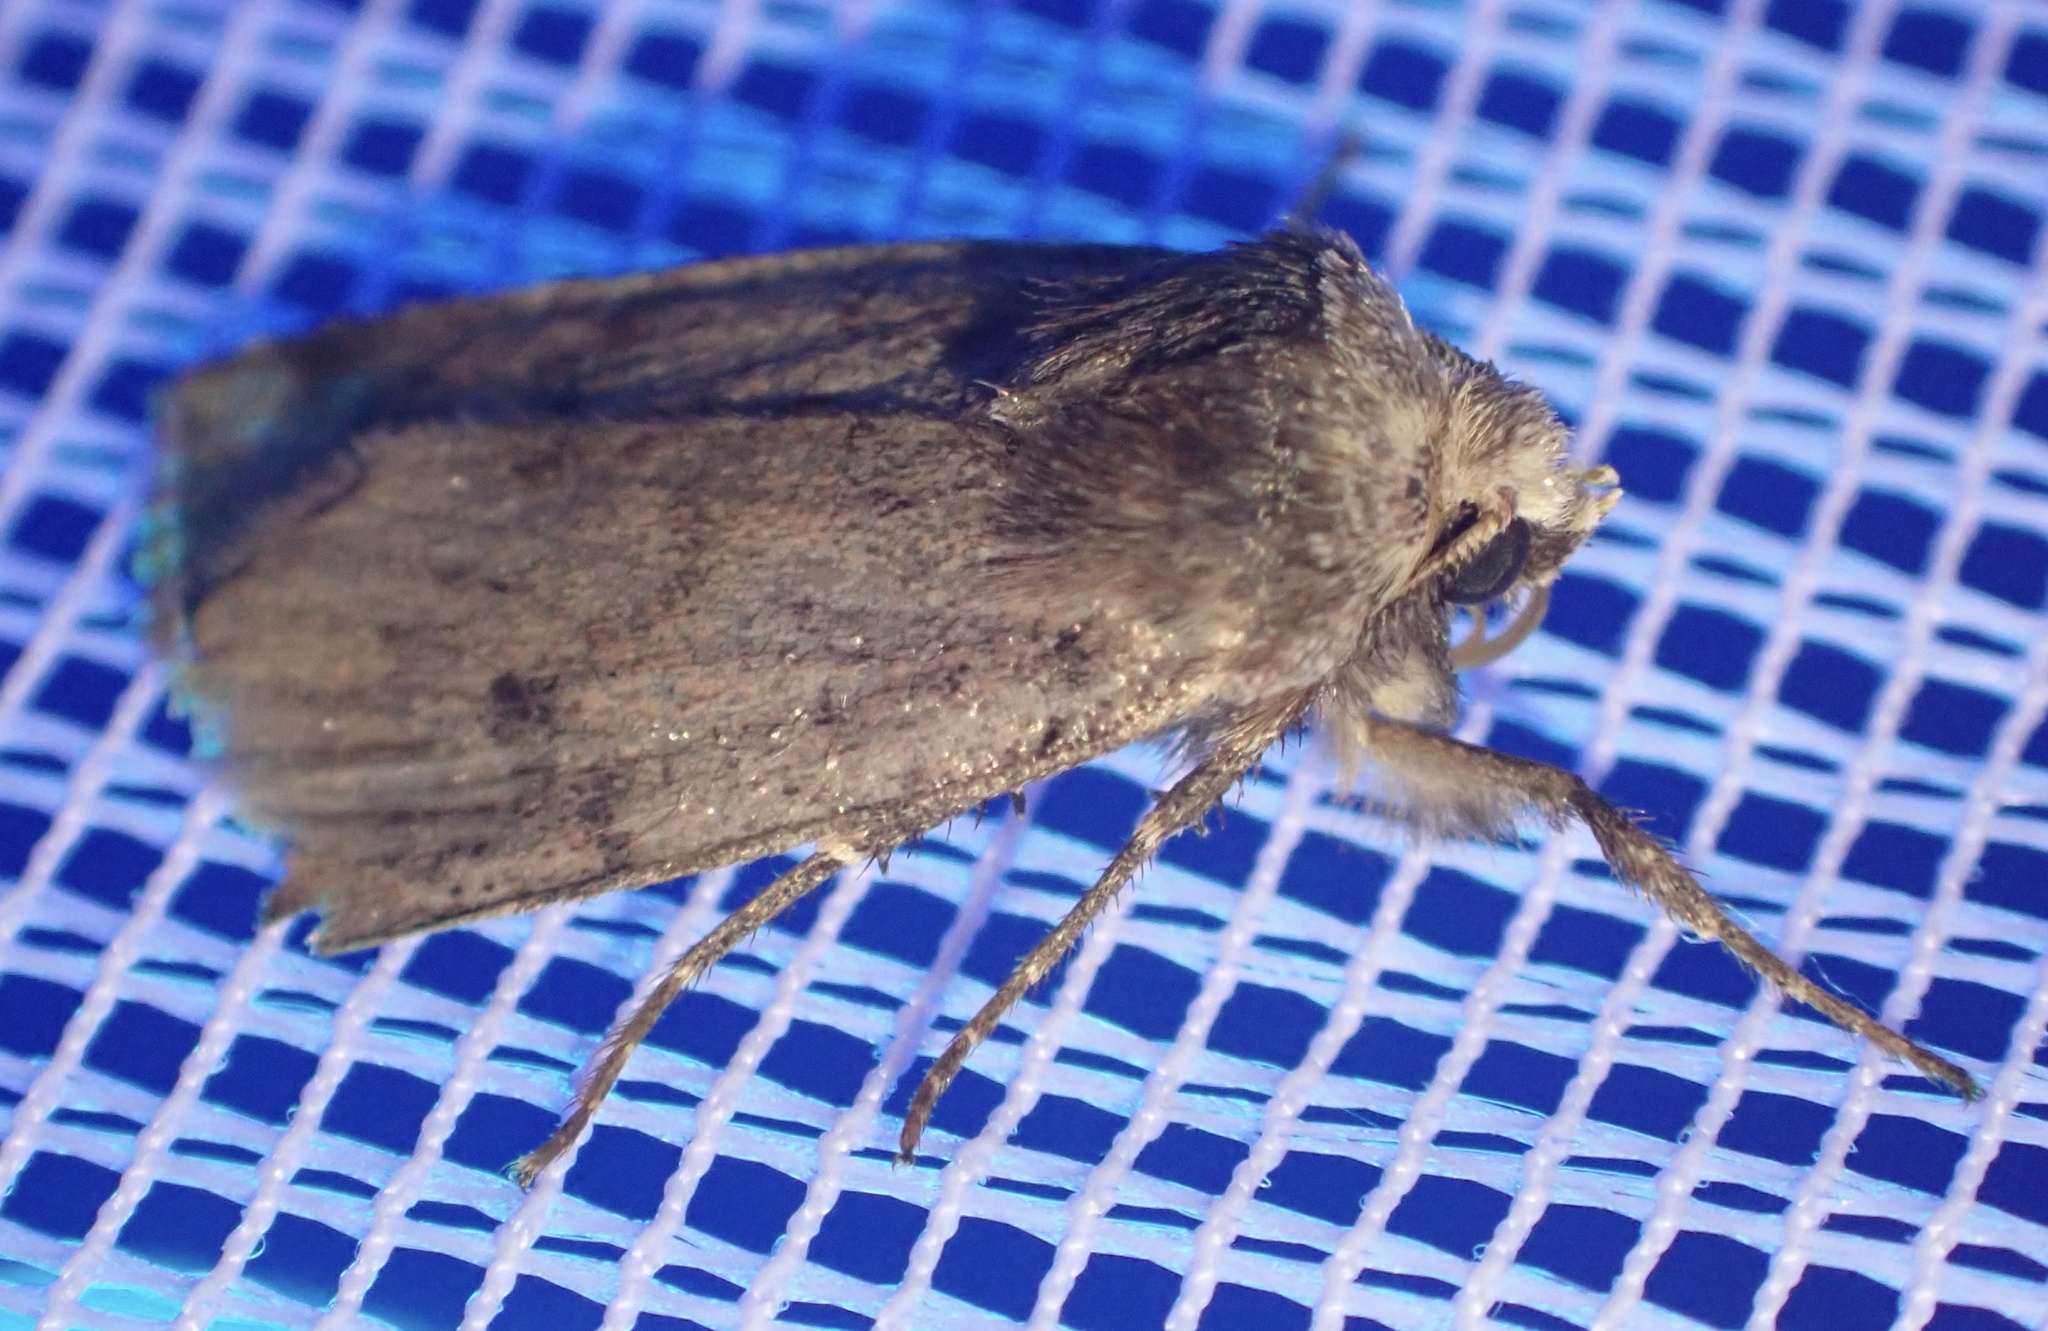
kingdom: Animalia
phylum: Arthropoda
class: Insecta
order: Lepidoptera
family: Noctuidae
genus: Cerastis
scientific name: Cerastis faceta
